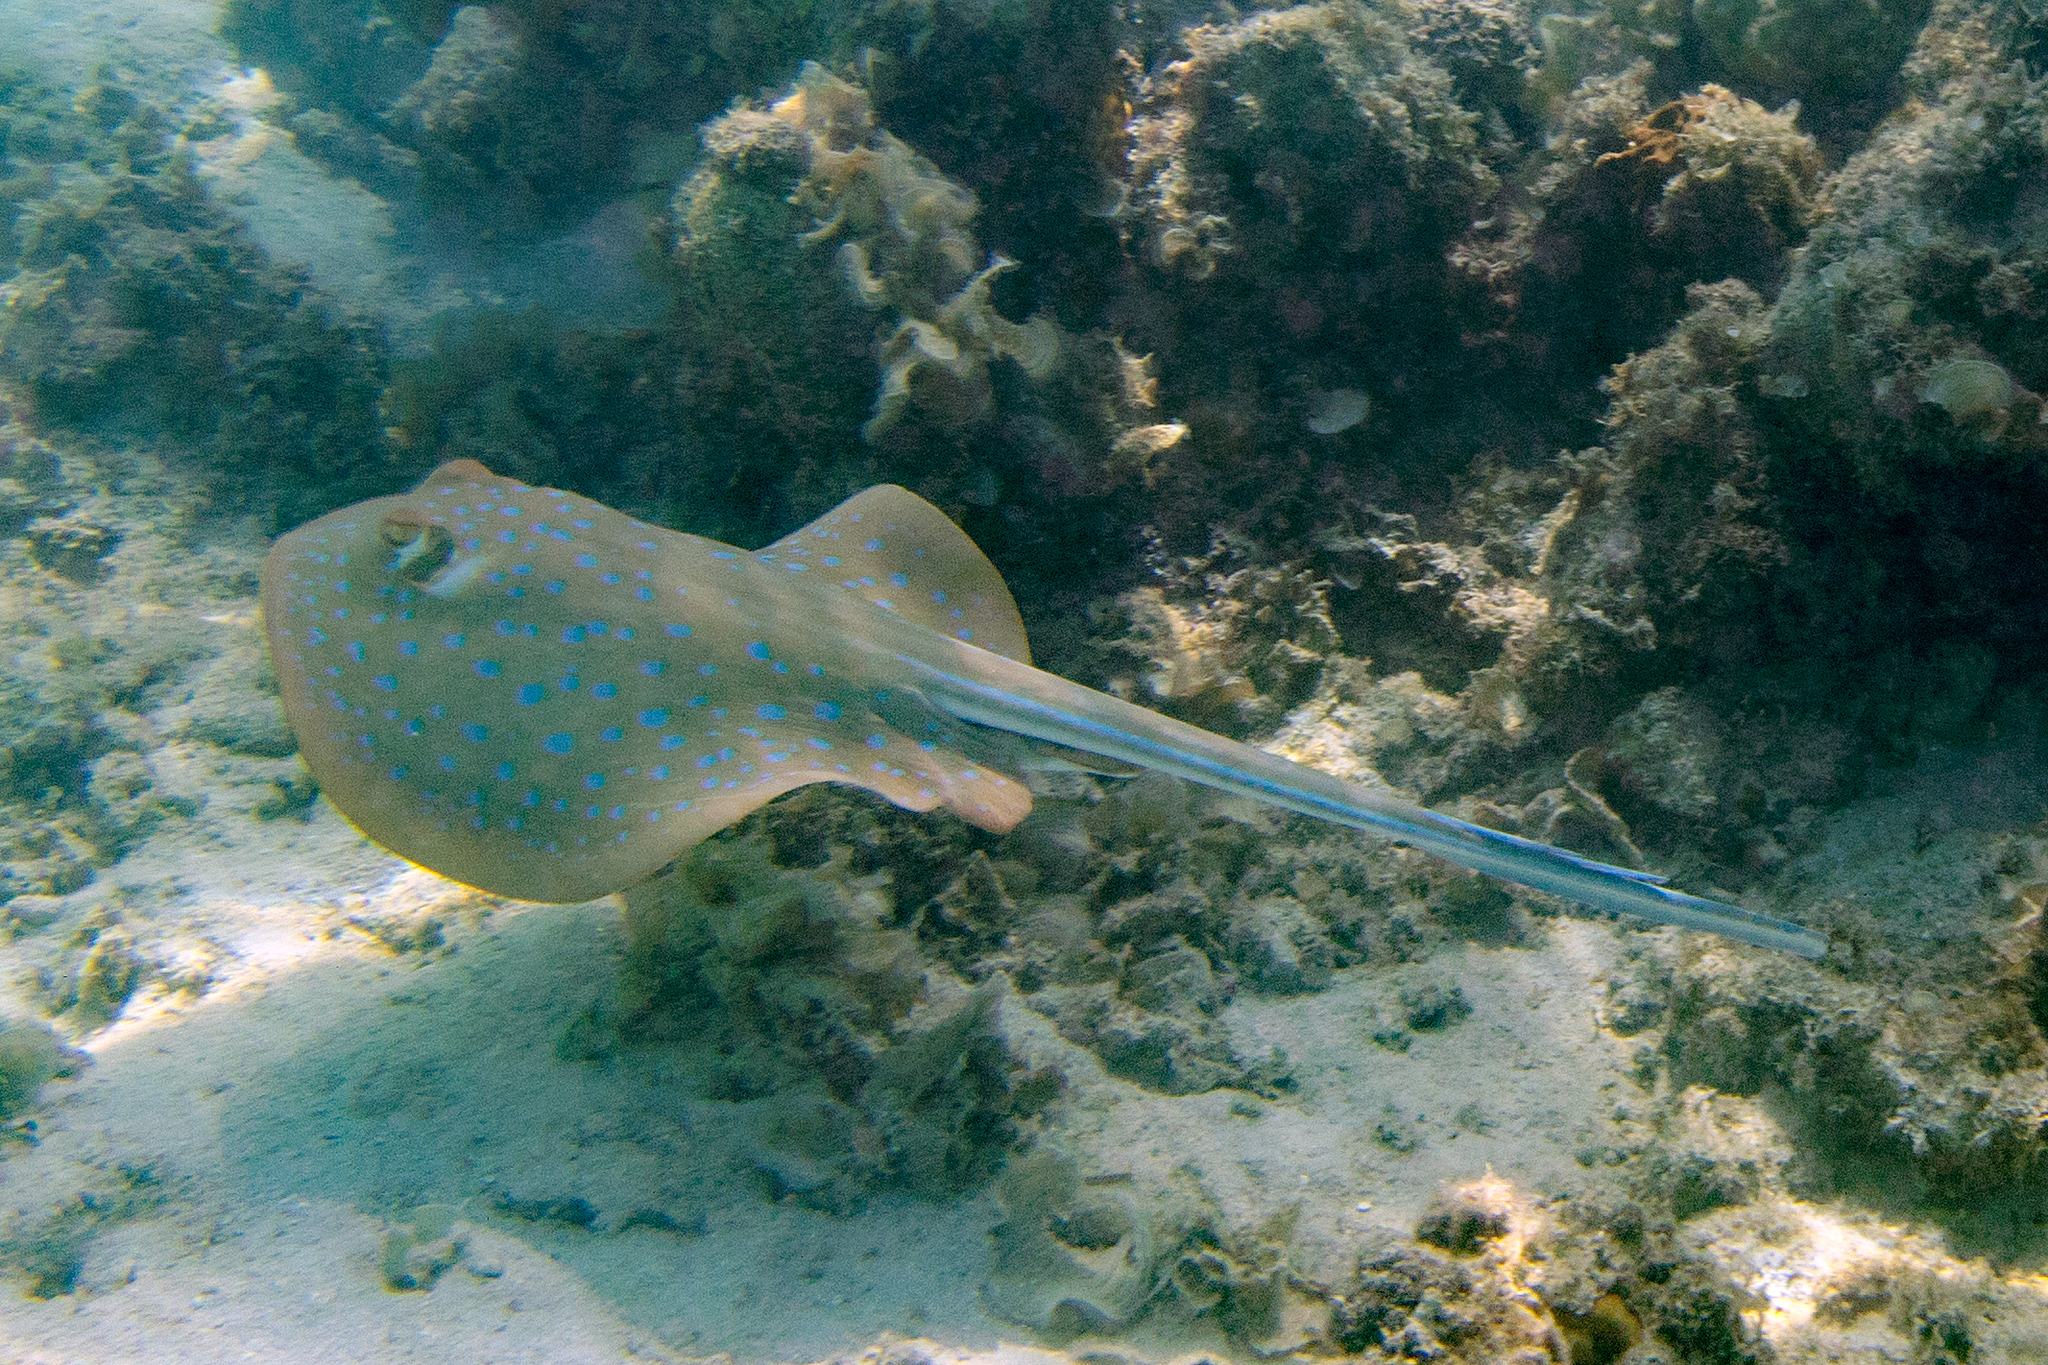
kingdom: Animalia
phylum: Chordata
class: Elasmobranchii
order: Myliobatiformes
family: Dasyatidae
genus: Taeniura
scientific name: Taeniura lymma
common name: Bluespotted ribbontail ray
